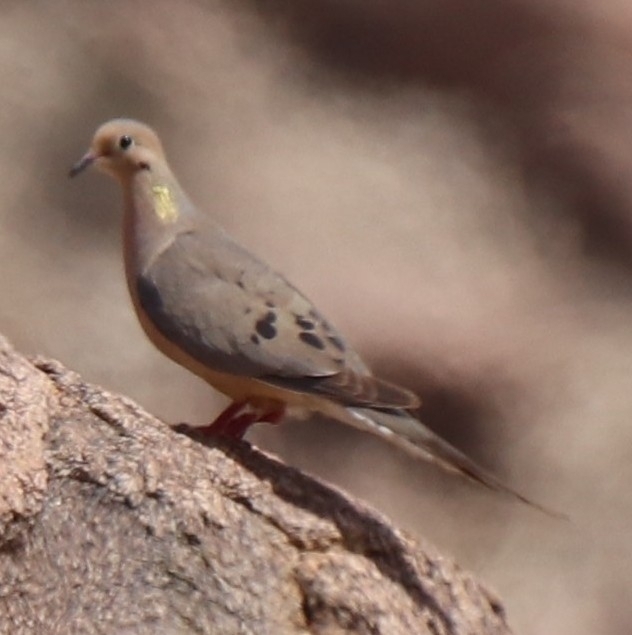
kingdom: Animalia
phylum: Chordata
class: Aves
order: Columbiformes
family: Columbidae
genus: Zenaida
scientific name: Zenaida macroura
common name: Mourning dove
